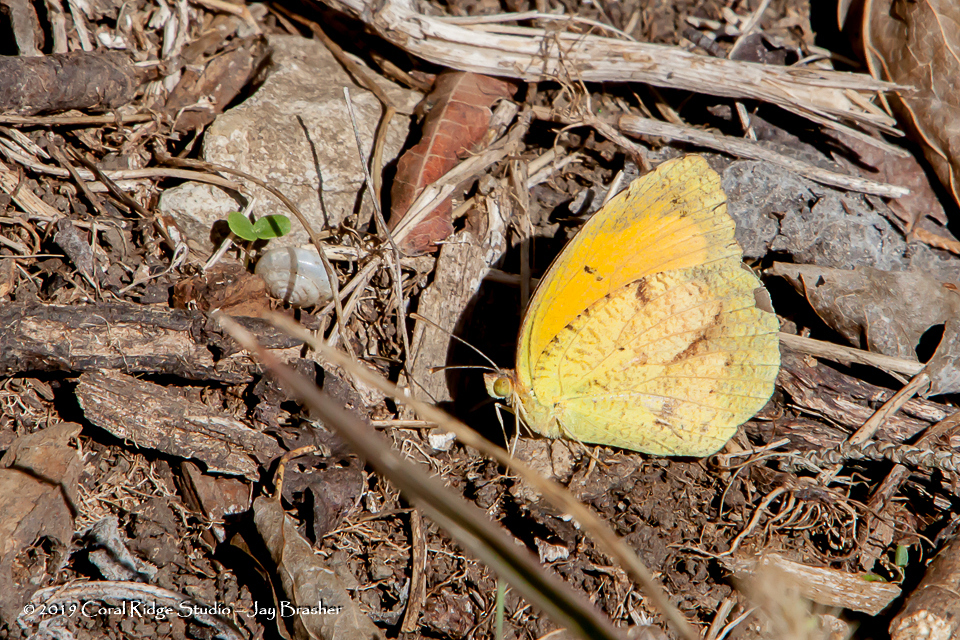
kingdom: Animalia
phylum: Arthropoda
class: Insecta
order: Lepidoptera
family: Pieridae
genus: Abaeis
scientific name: Abaeis nicippe
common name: Sleepy orange
